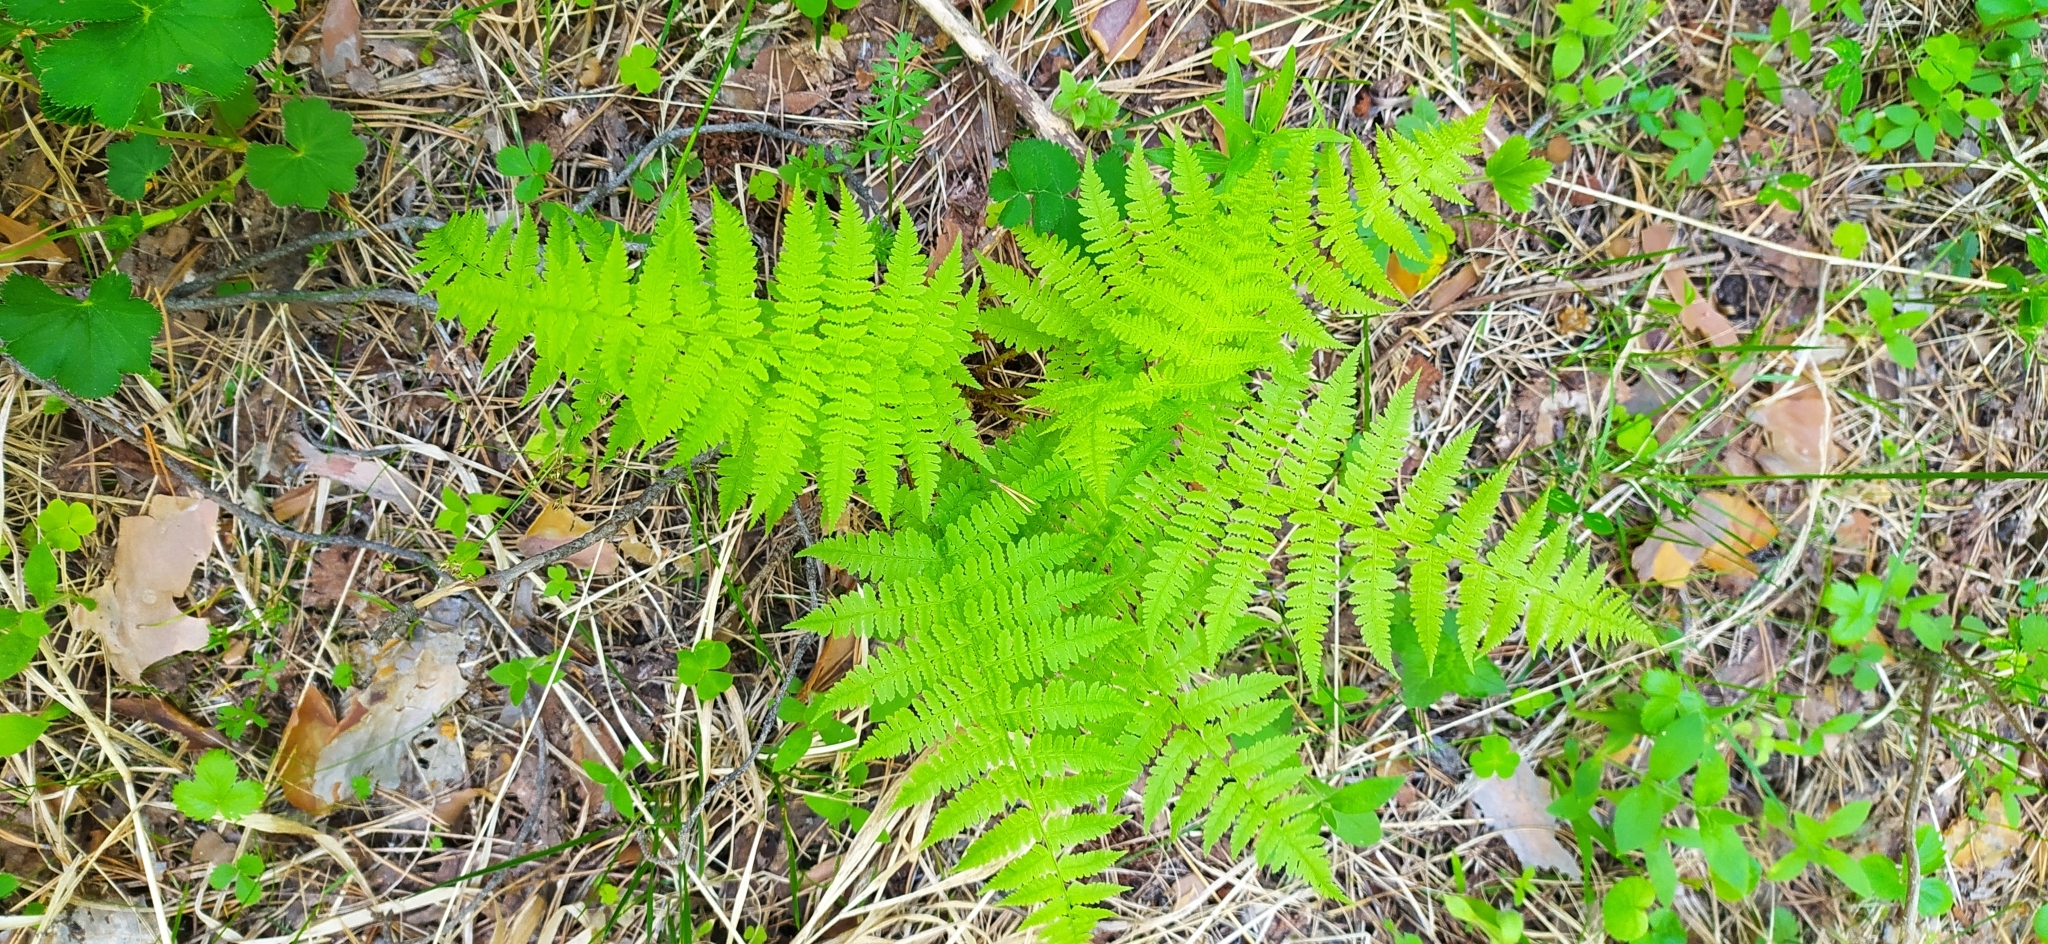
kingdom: Plantae
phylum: Tracheophyta
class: Polypodiopsida
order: Polypodiales
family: Athyriaceae
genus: Athyrium
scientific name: Athyrium filix-femina
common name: Lady fern
